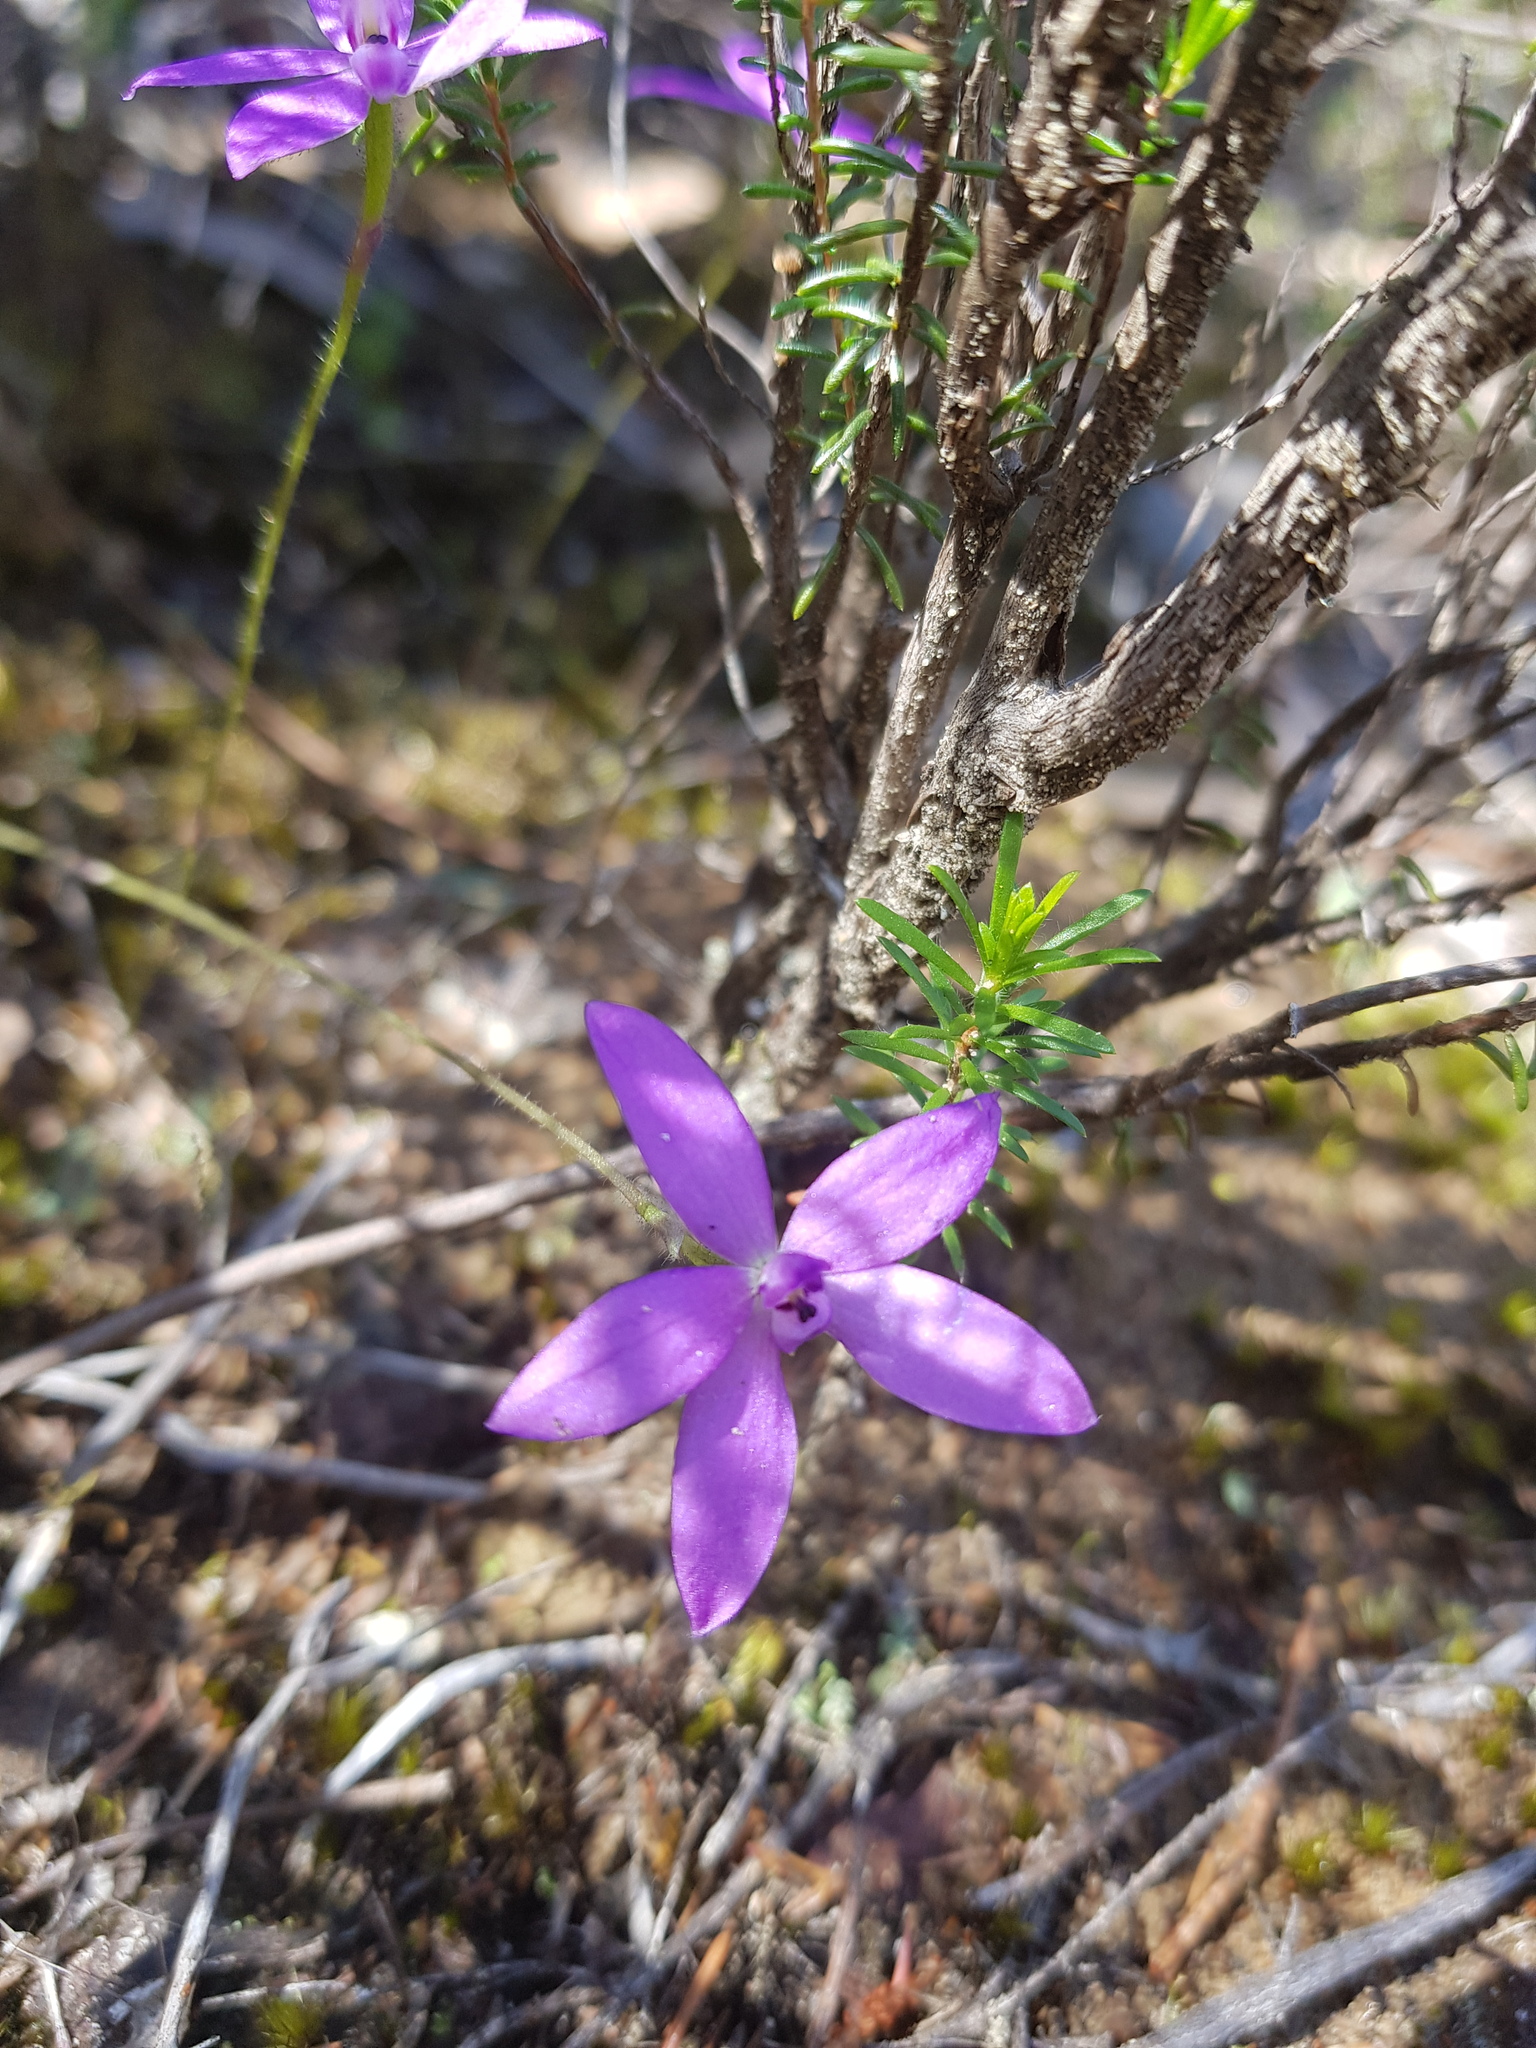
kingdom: Plantae
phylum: Tracheophyta
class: Liliopsida
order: Asparagales
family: Orchidaceae
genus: Caladenia
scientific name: Caladenia minorata
